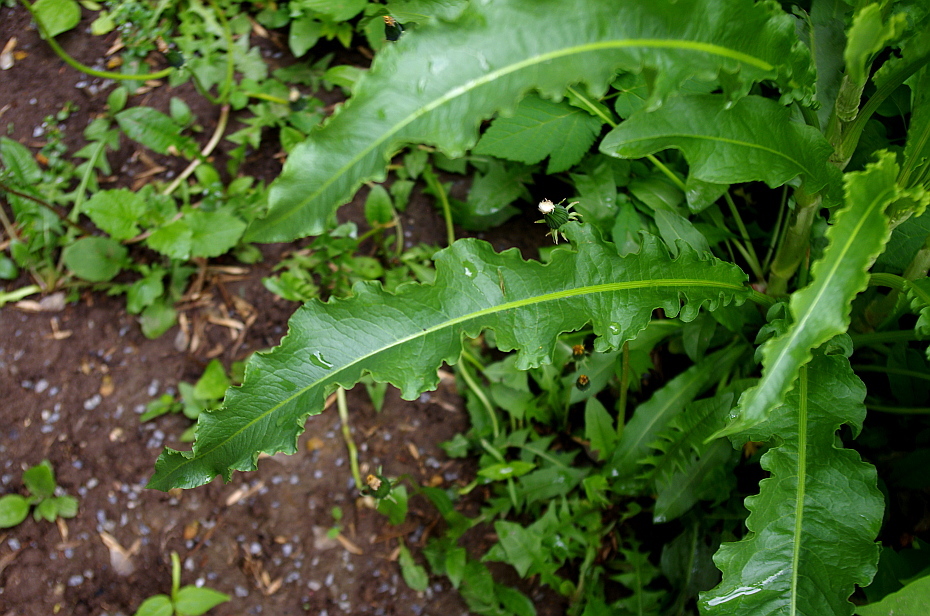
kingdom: Plantae
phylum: Tracheophyta
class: Magnoliopsida
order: Caryophyllales
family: Polygonaceae
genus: Rumex
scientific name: Rumex crispus
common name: Curled dock
